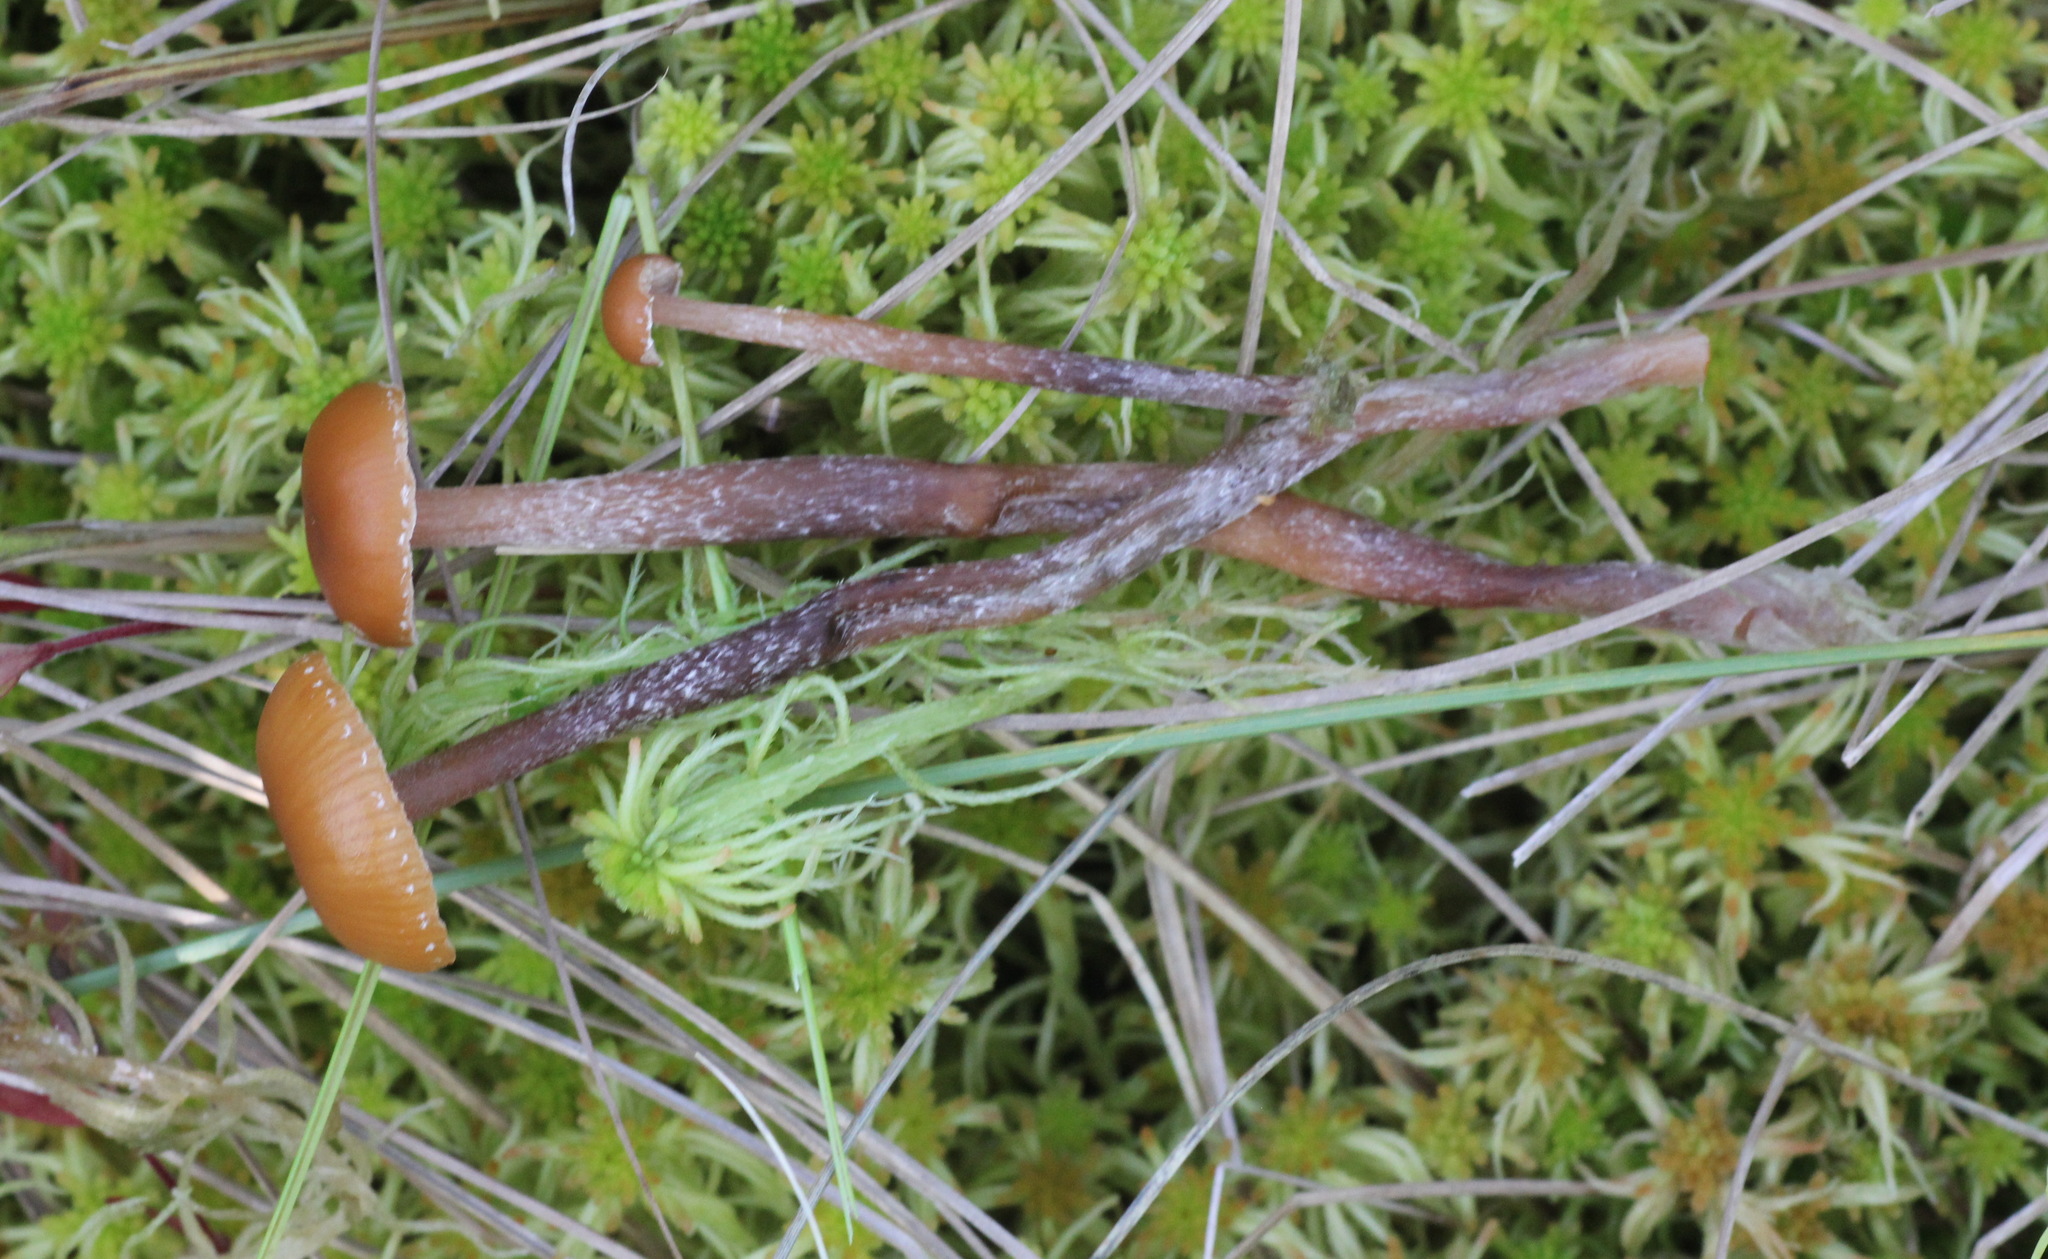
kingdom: Fungi
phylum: Basidiomycota
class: Agaricomycetes
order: Agaricales
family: Hymenogastraceae
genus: Phaeogalera
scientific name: Phaeogalera stagnina
